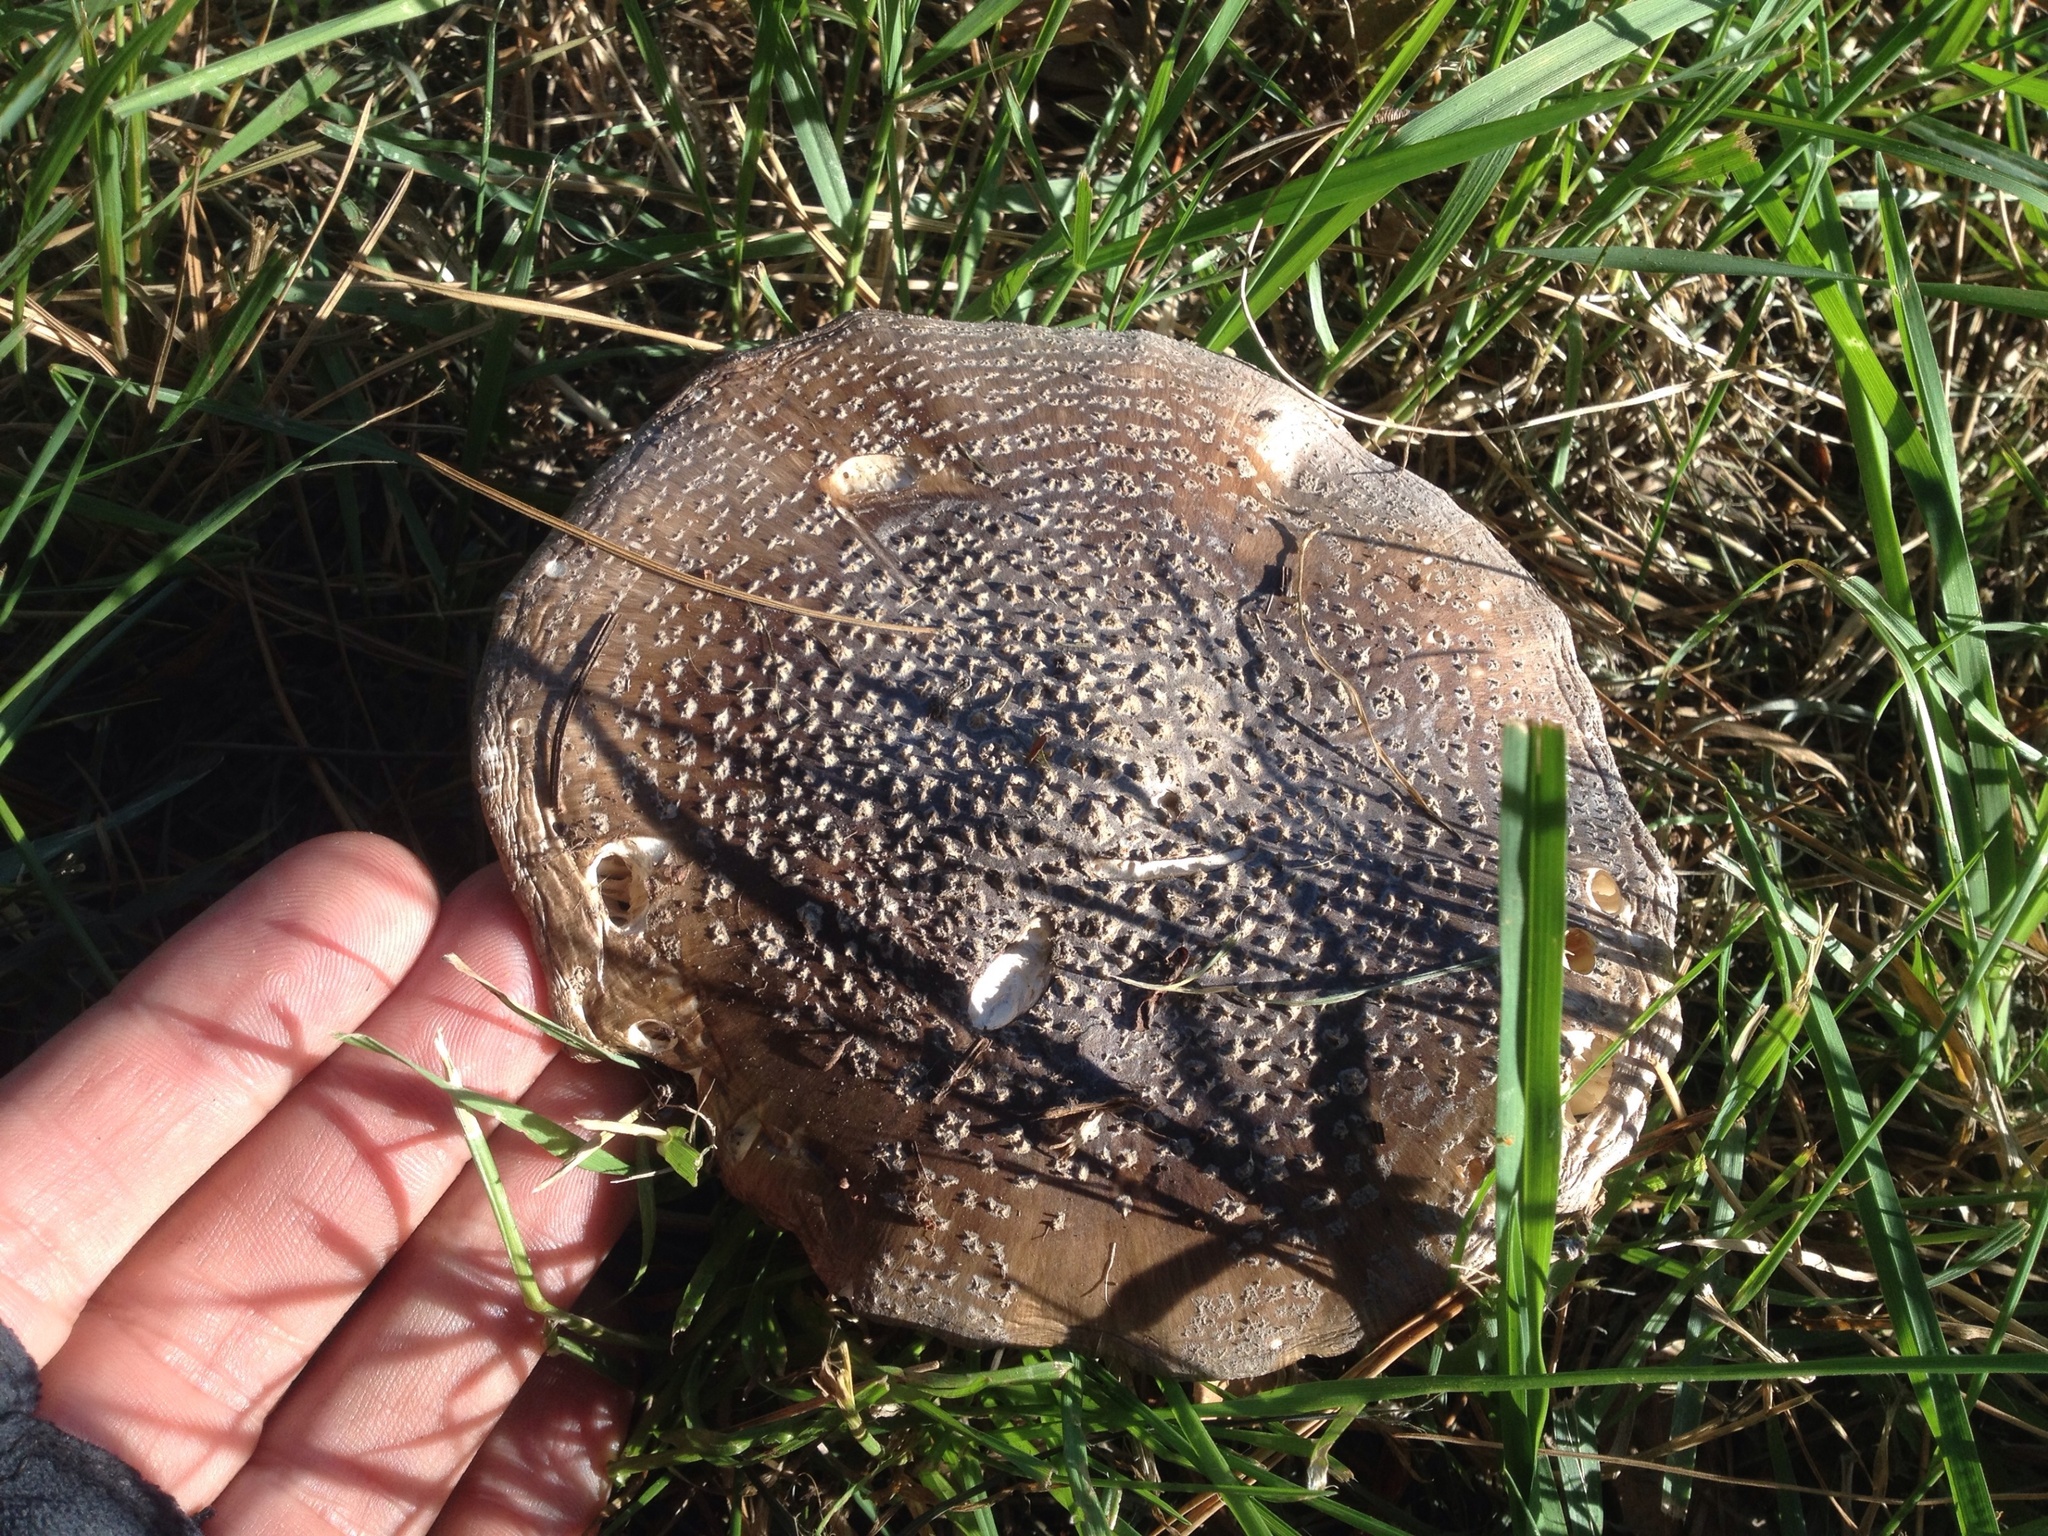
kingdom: Fungi
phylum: Basidiomycota
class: Agaricomycetes
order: Agaricales
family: Amanitaceae
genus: Amanita
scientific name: Amanita excelsa
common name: European false blusher
